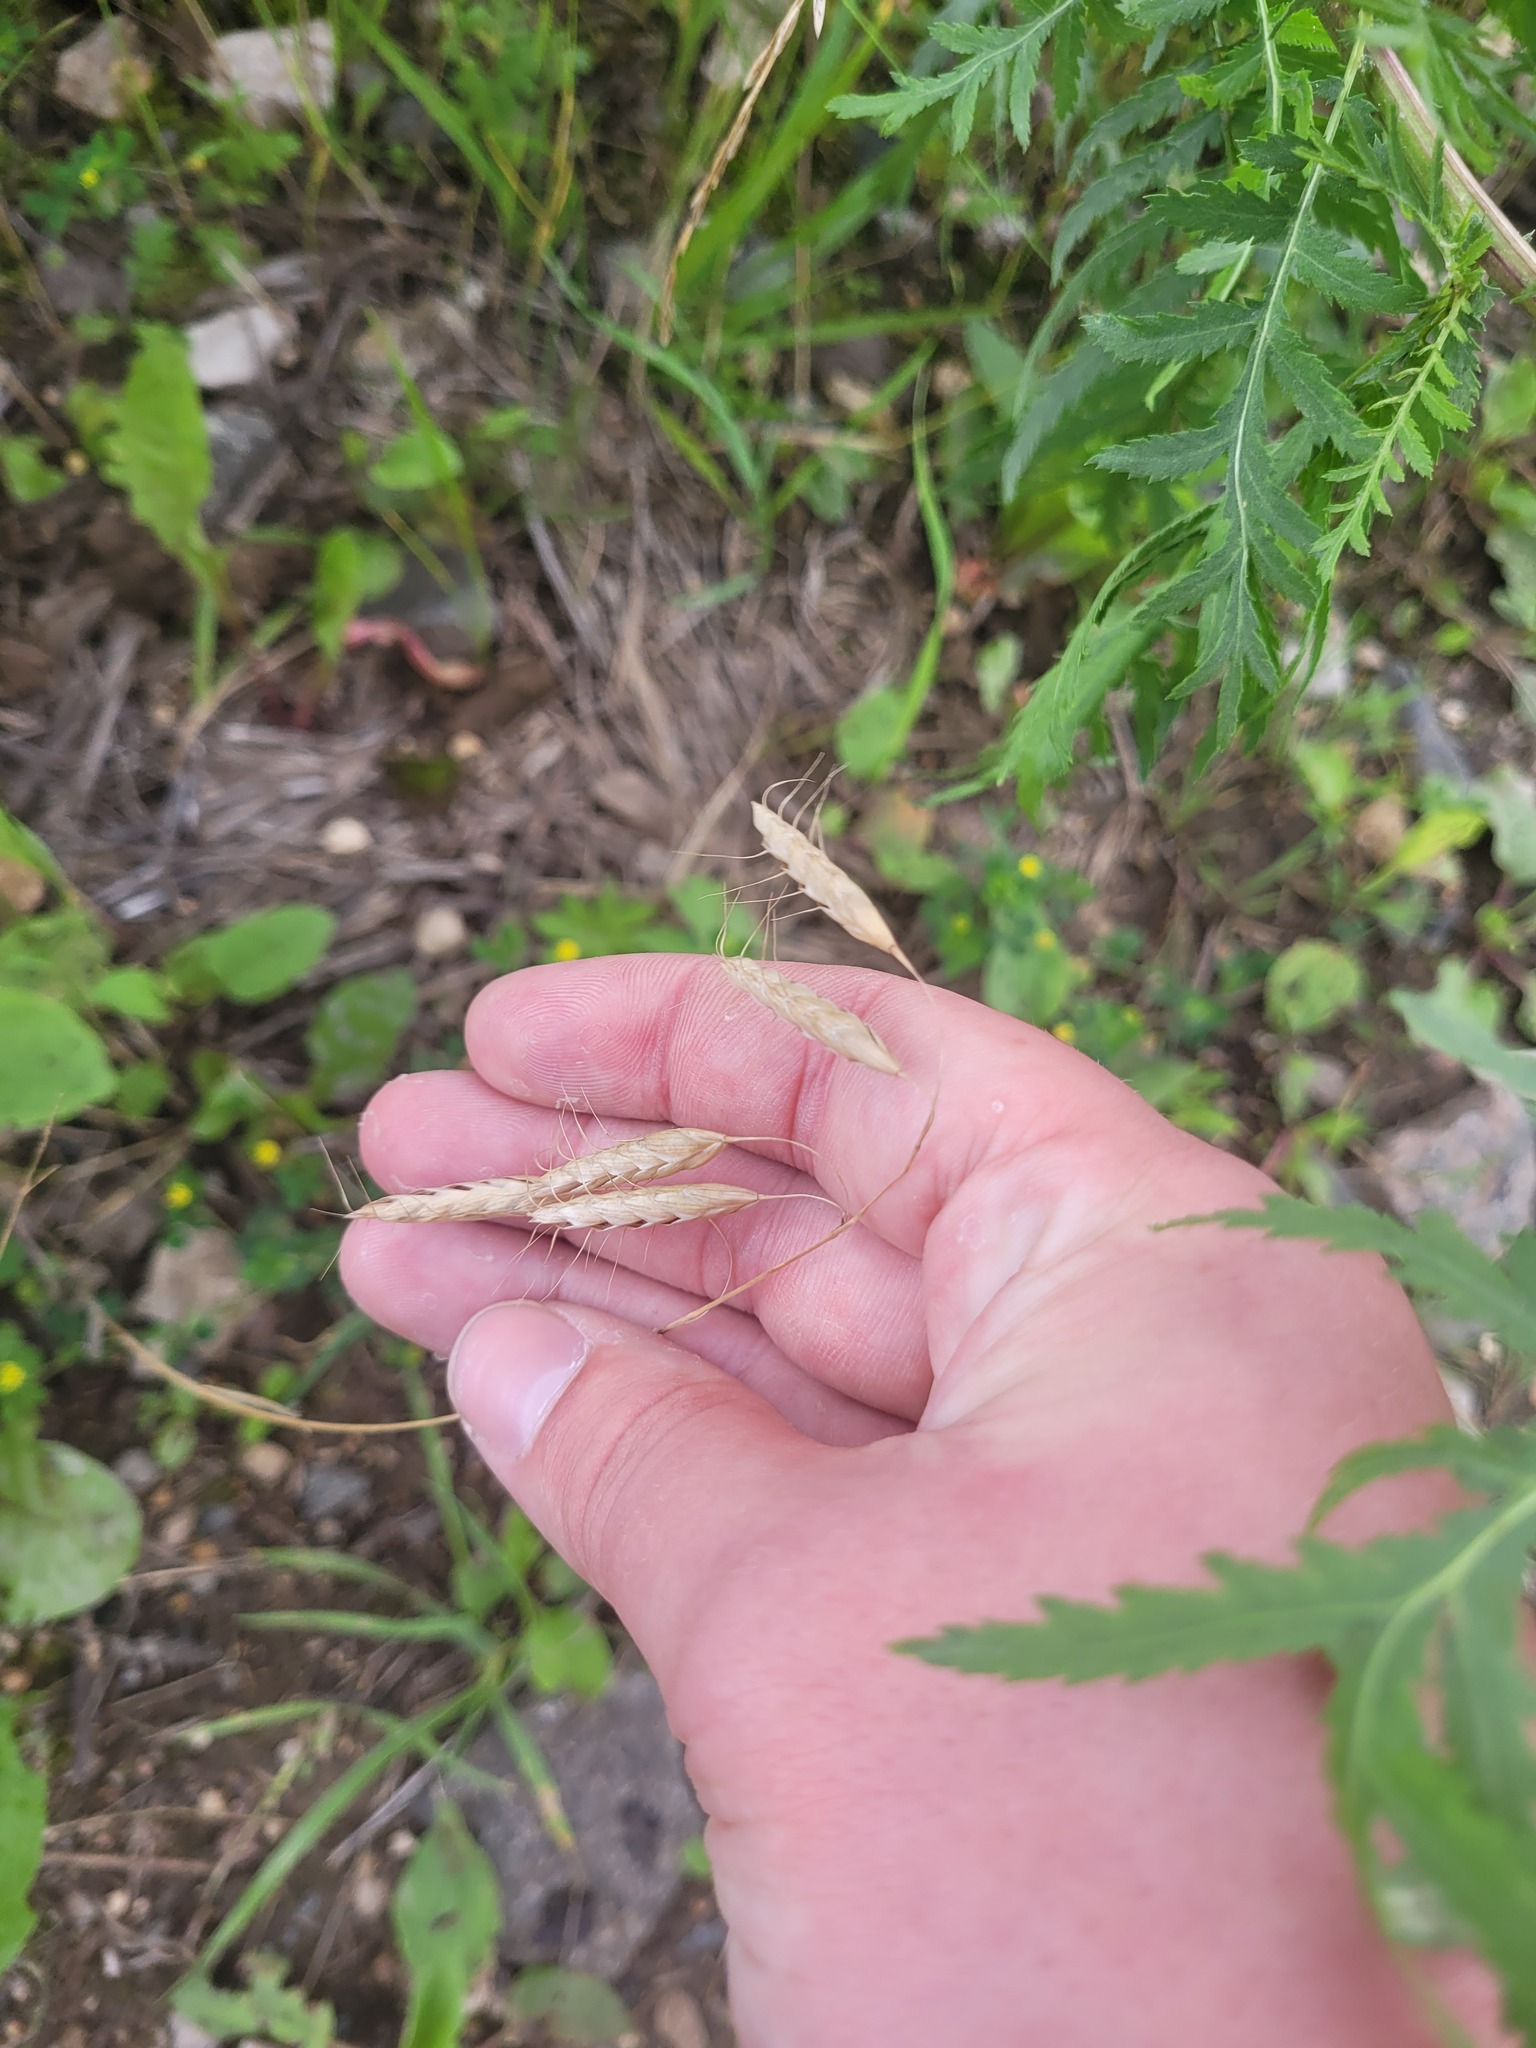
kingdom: Plantae
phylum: Tracheophyta
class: Liliopsida
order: Poales
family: Poaceae
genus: Bromus
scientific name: Bromus squarrosus
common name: Corn brome
